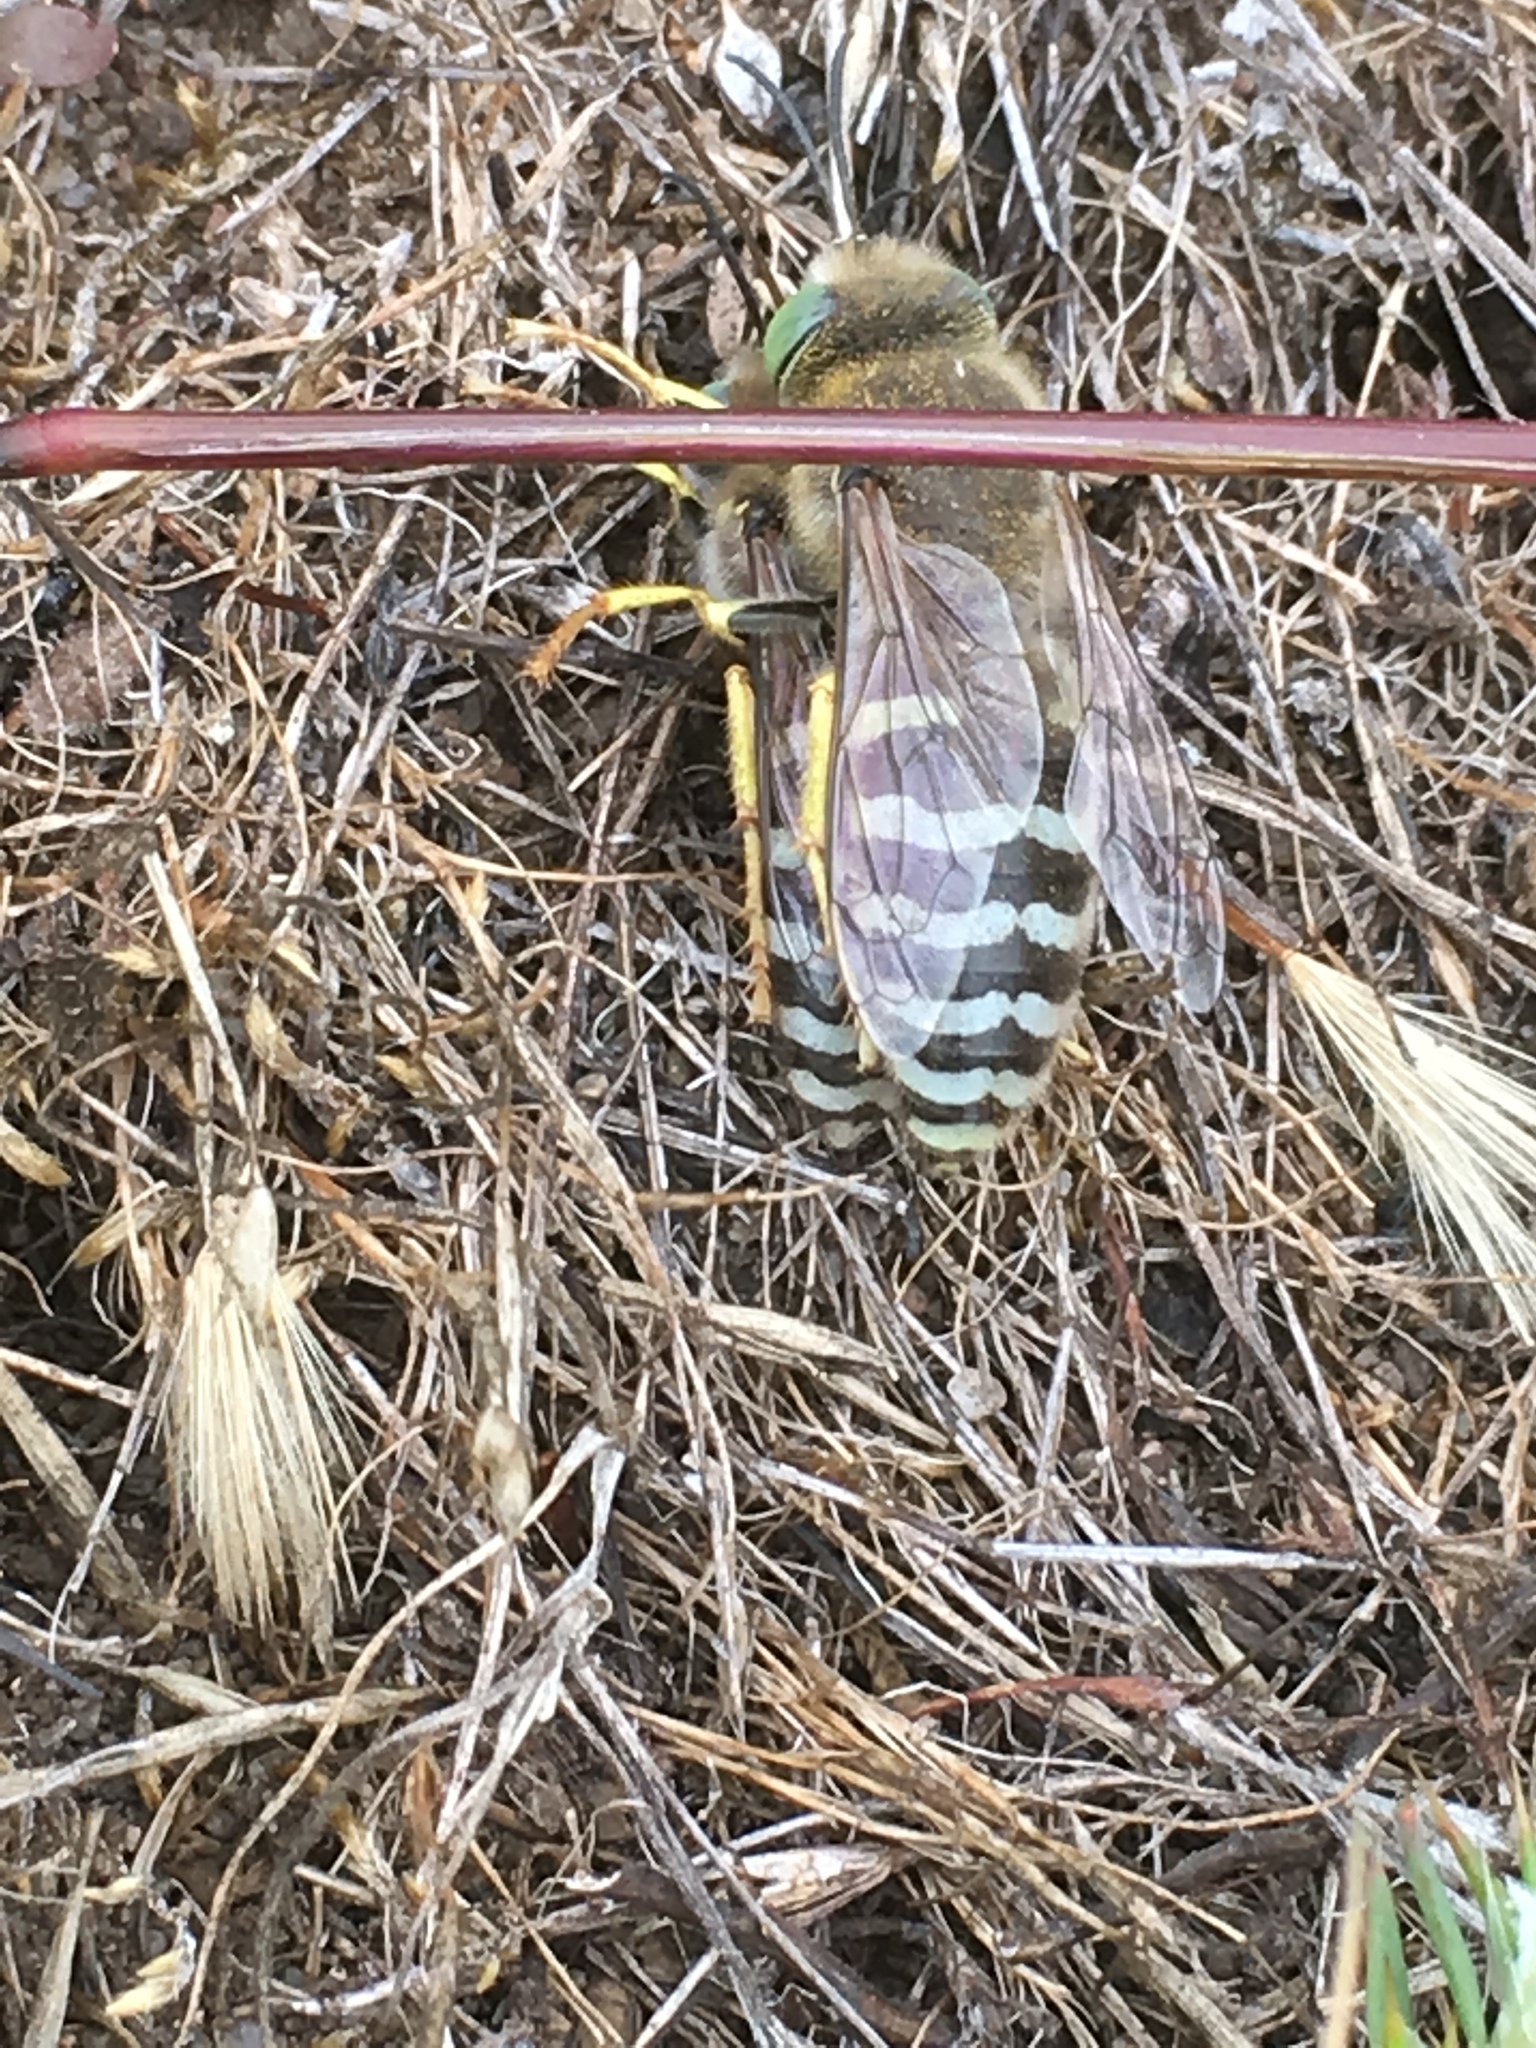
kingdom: Animalia
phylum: Arthropoda
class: Insecta
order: Hymenoptera
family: Crabronidae
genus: Bembix
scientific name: Bembix americana
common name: American sand wasp
